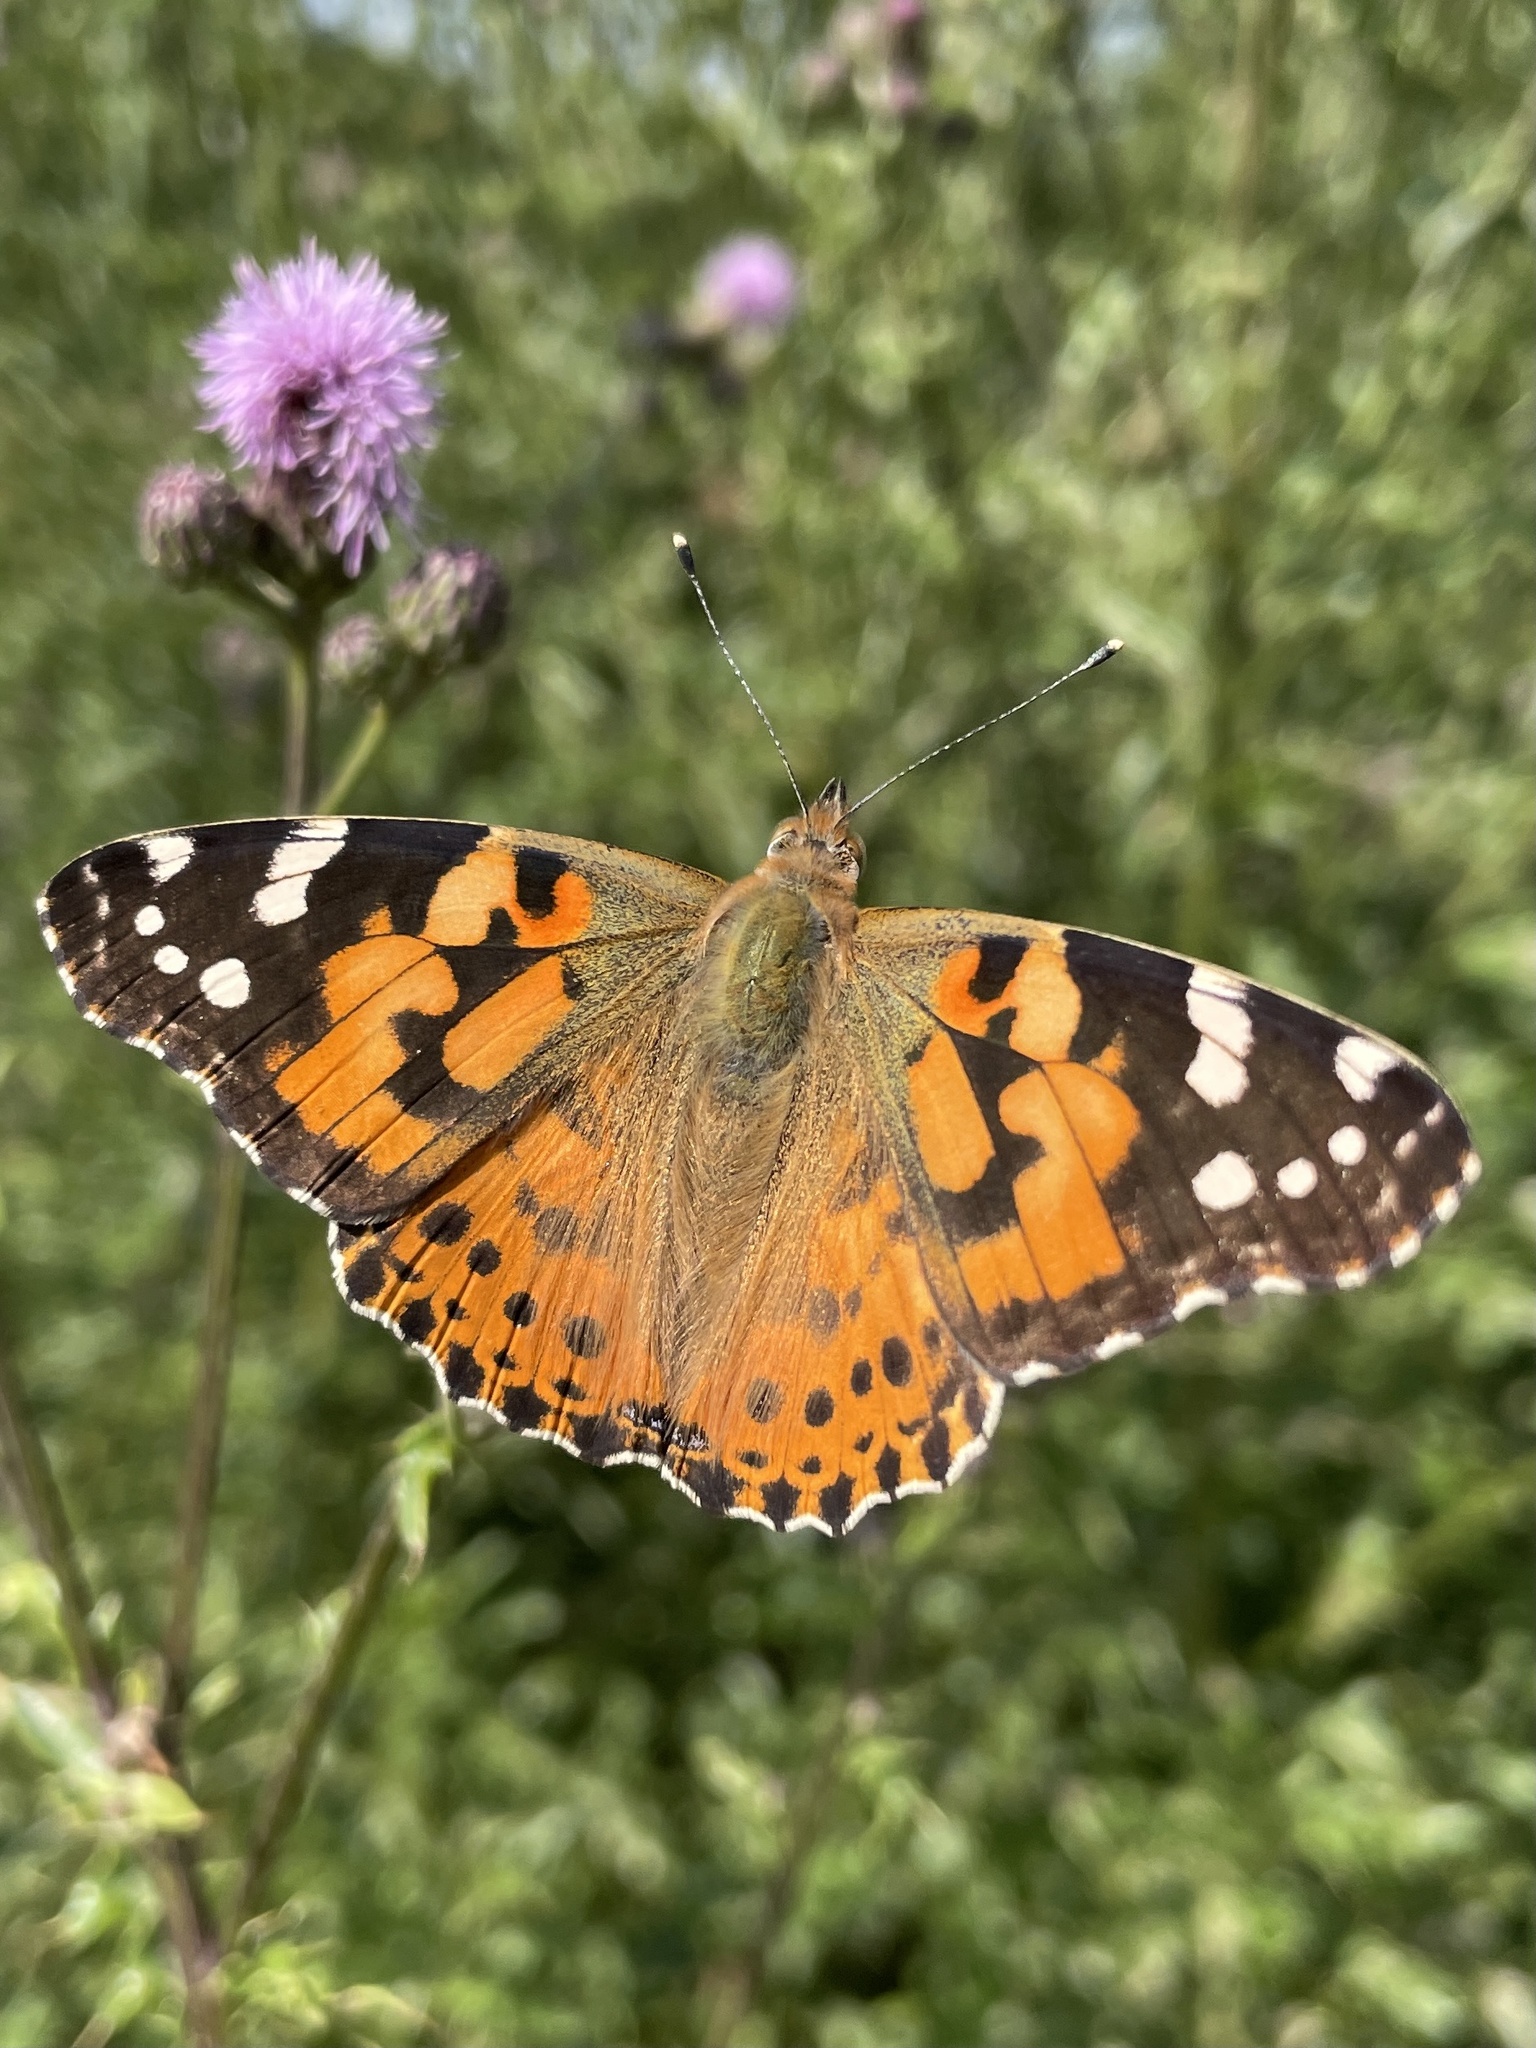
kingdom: Animalia
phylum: Arthropoda
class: Insecta
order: Lepidoptera
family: Nymphalidae
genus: Vanessa
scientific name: Vanessa cardui
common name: Painted lady
